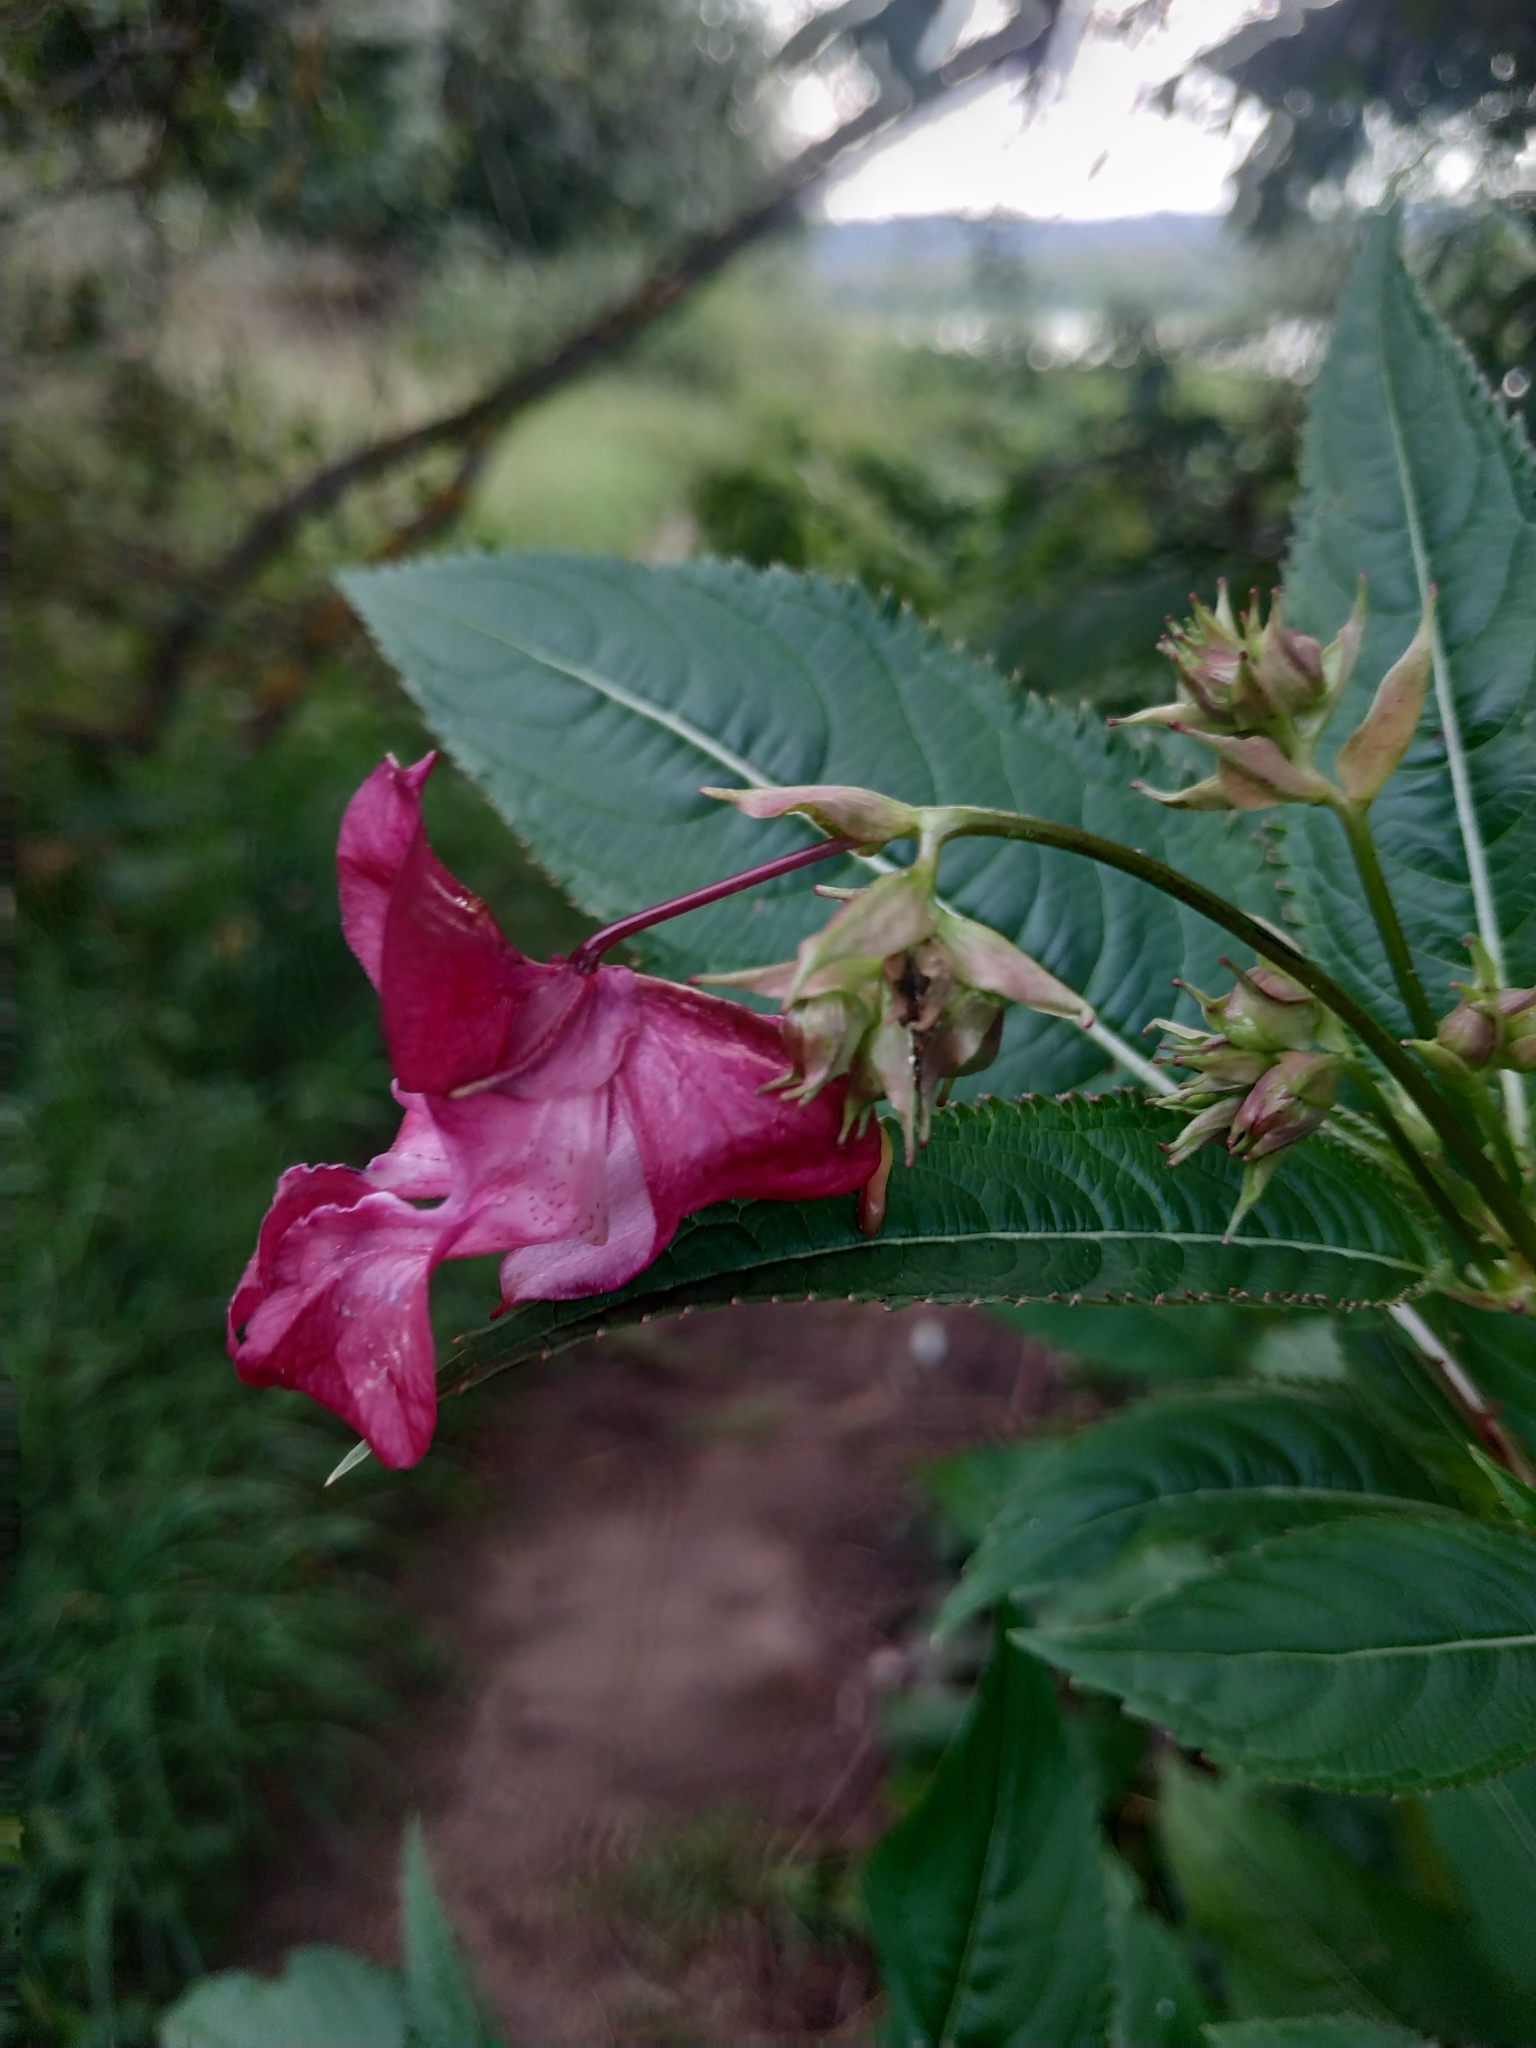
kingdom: Plantae
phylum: Tracheophyta
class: Magnoliopsida
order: Ericales
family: Balsaminaceae
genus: Impatiens
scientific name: Impatiens glandulifera
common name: Himalayan balsam
